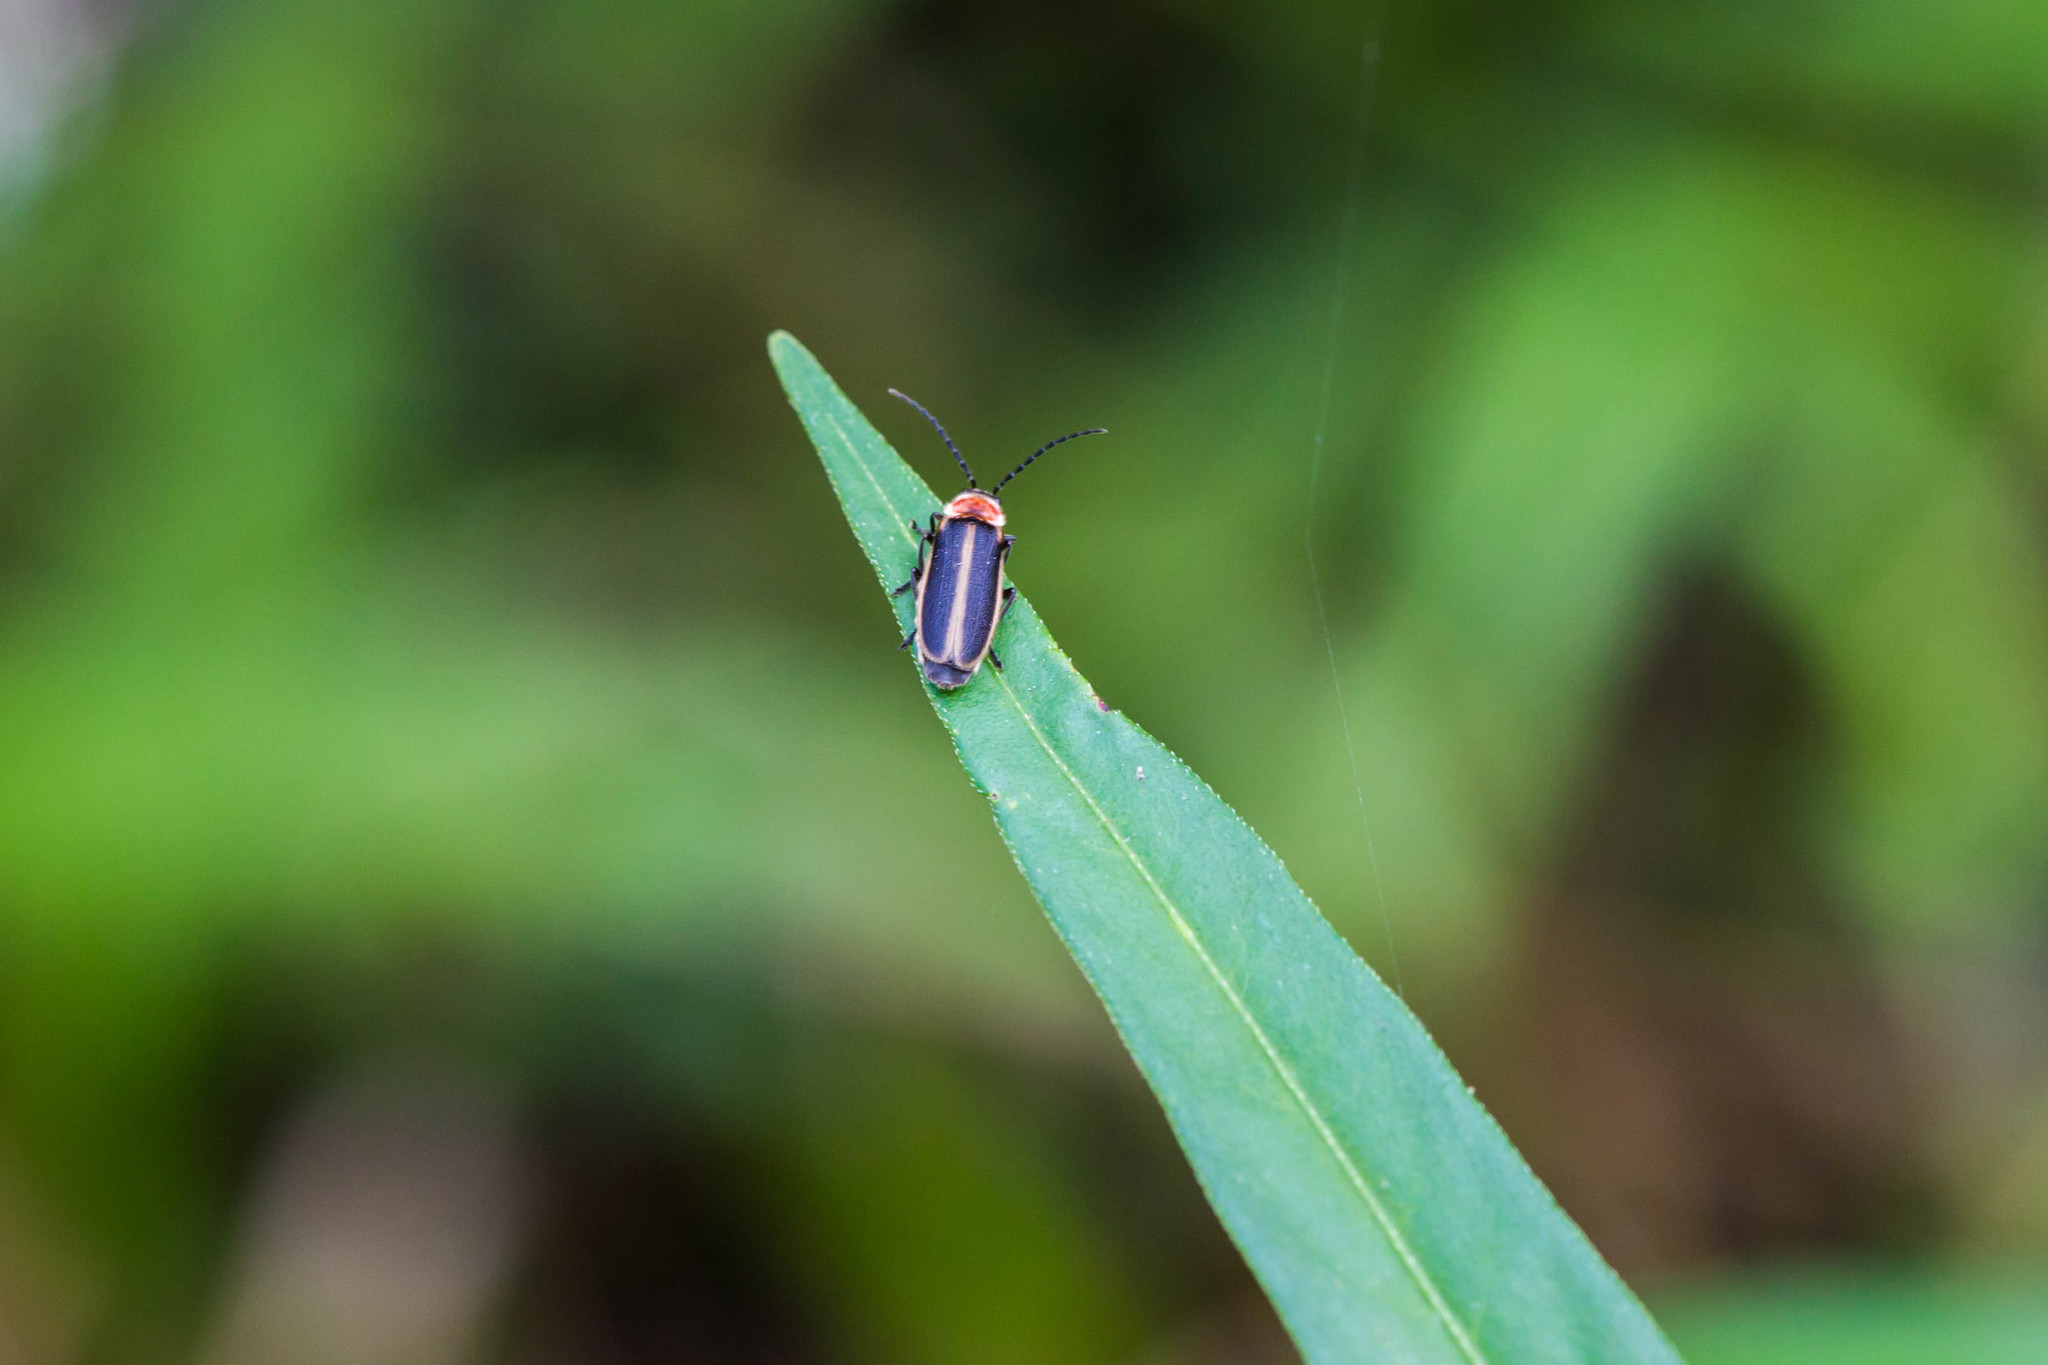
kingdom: Animalia
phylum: Arthropoda
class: Insecta
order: Coleoptera
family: Lampyridae
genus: Photinus
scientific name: Photinus pyralis
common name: Big dipper firefly
